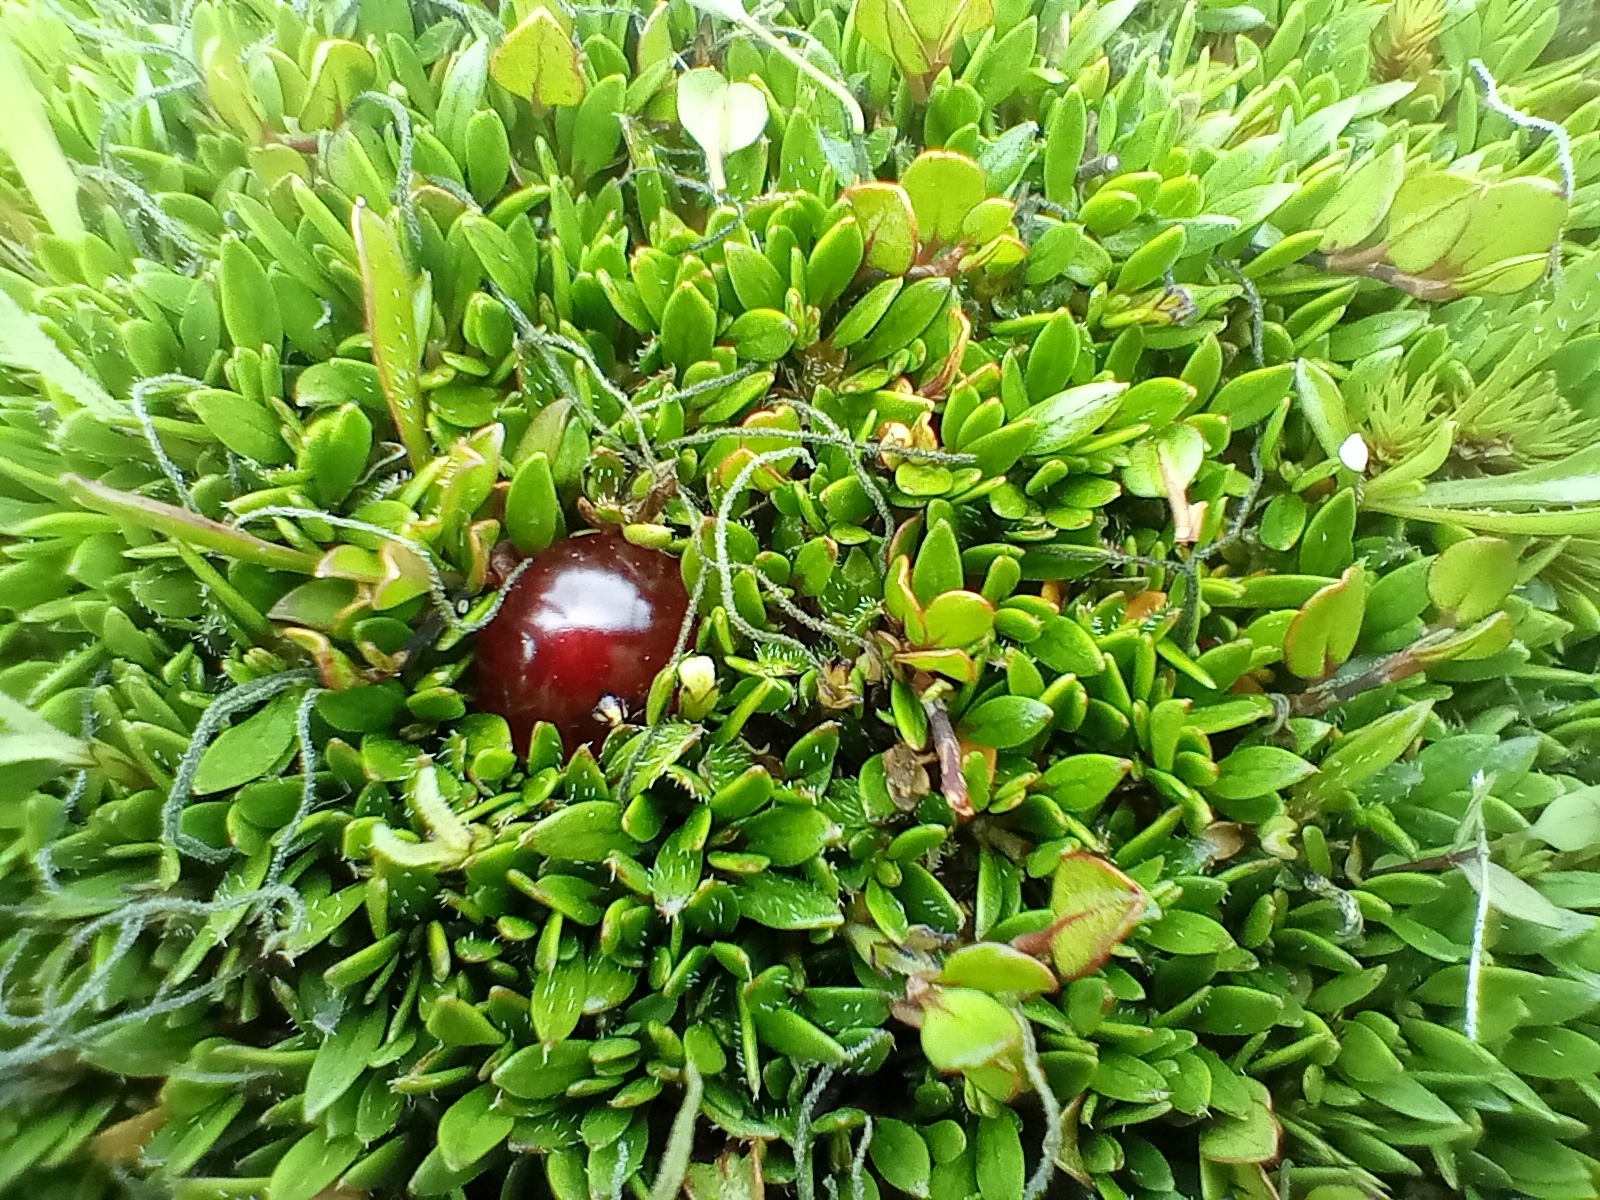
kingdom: Plantae
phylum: Tracheophyta
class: Magnoliopsida
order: Gentianales
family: Rubiaceae
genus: Coprosma
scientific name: Coprosma atropurpurea
